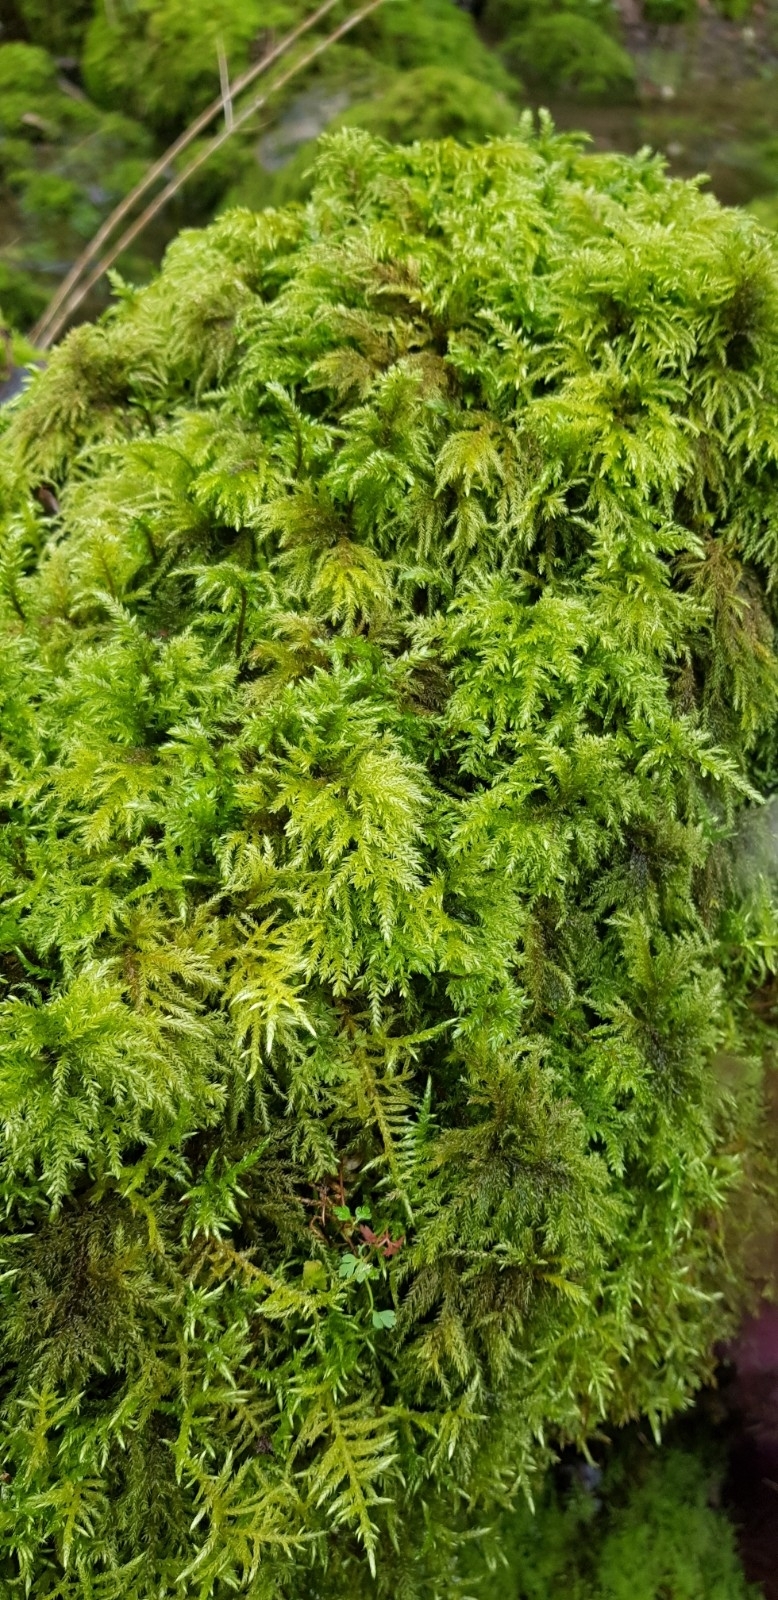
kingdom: Plantae
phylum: Bryophyta
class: Bryopsida
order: Hypnales
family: Neckeraceae
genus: Thamnobryum
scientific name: Thamnobryum alopecurum
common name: Fox-tail feather-moss
